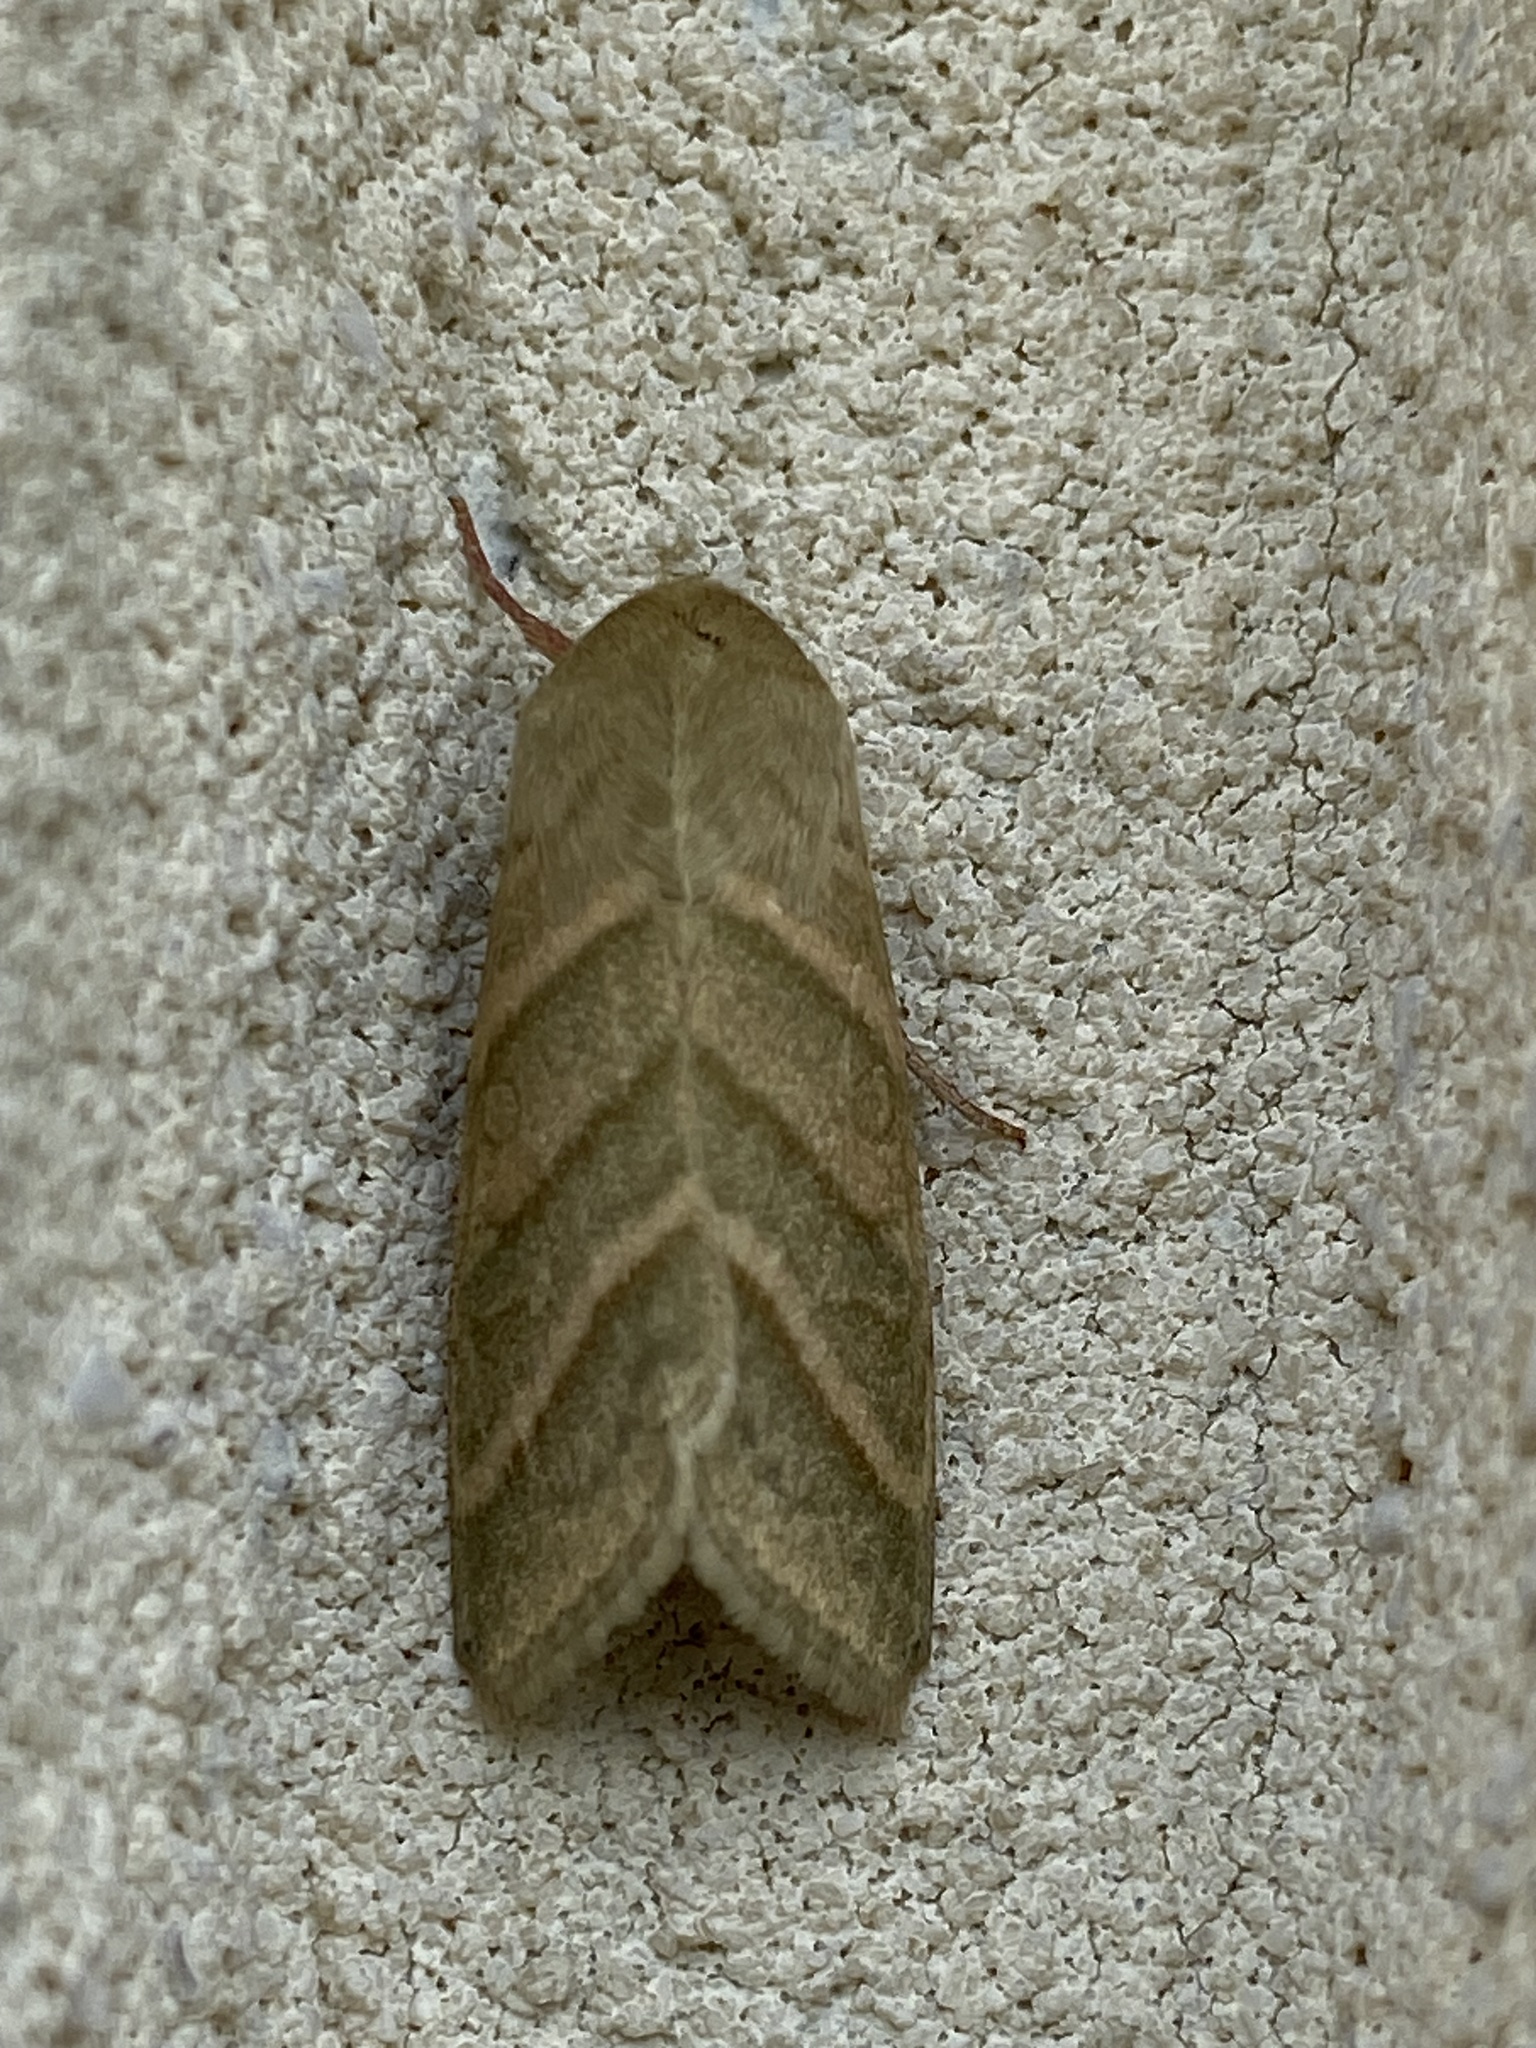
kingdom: Animalia
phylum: Arthropoda
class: Insecta
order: Lepidoptera
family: Noctuidae
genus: Chloridea
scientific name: Chloridea virescens
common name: Tobacco budworm
